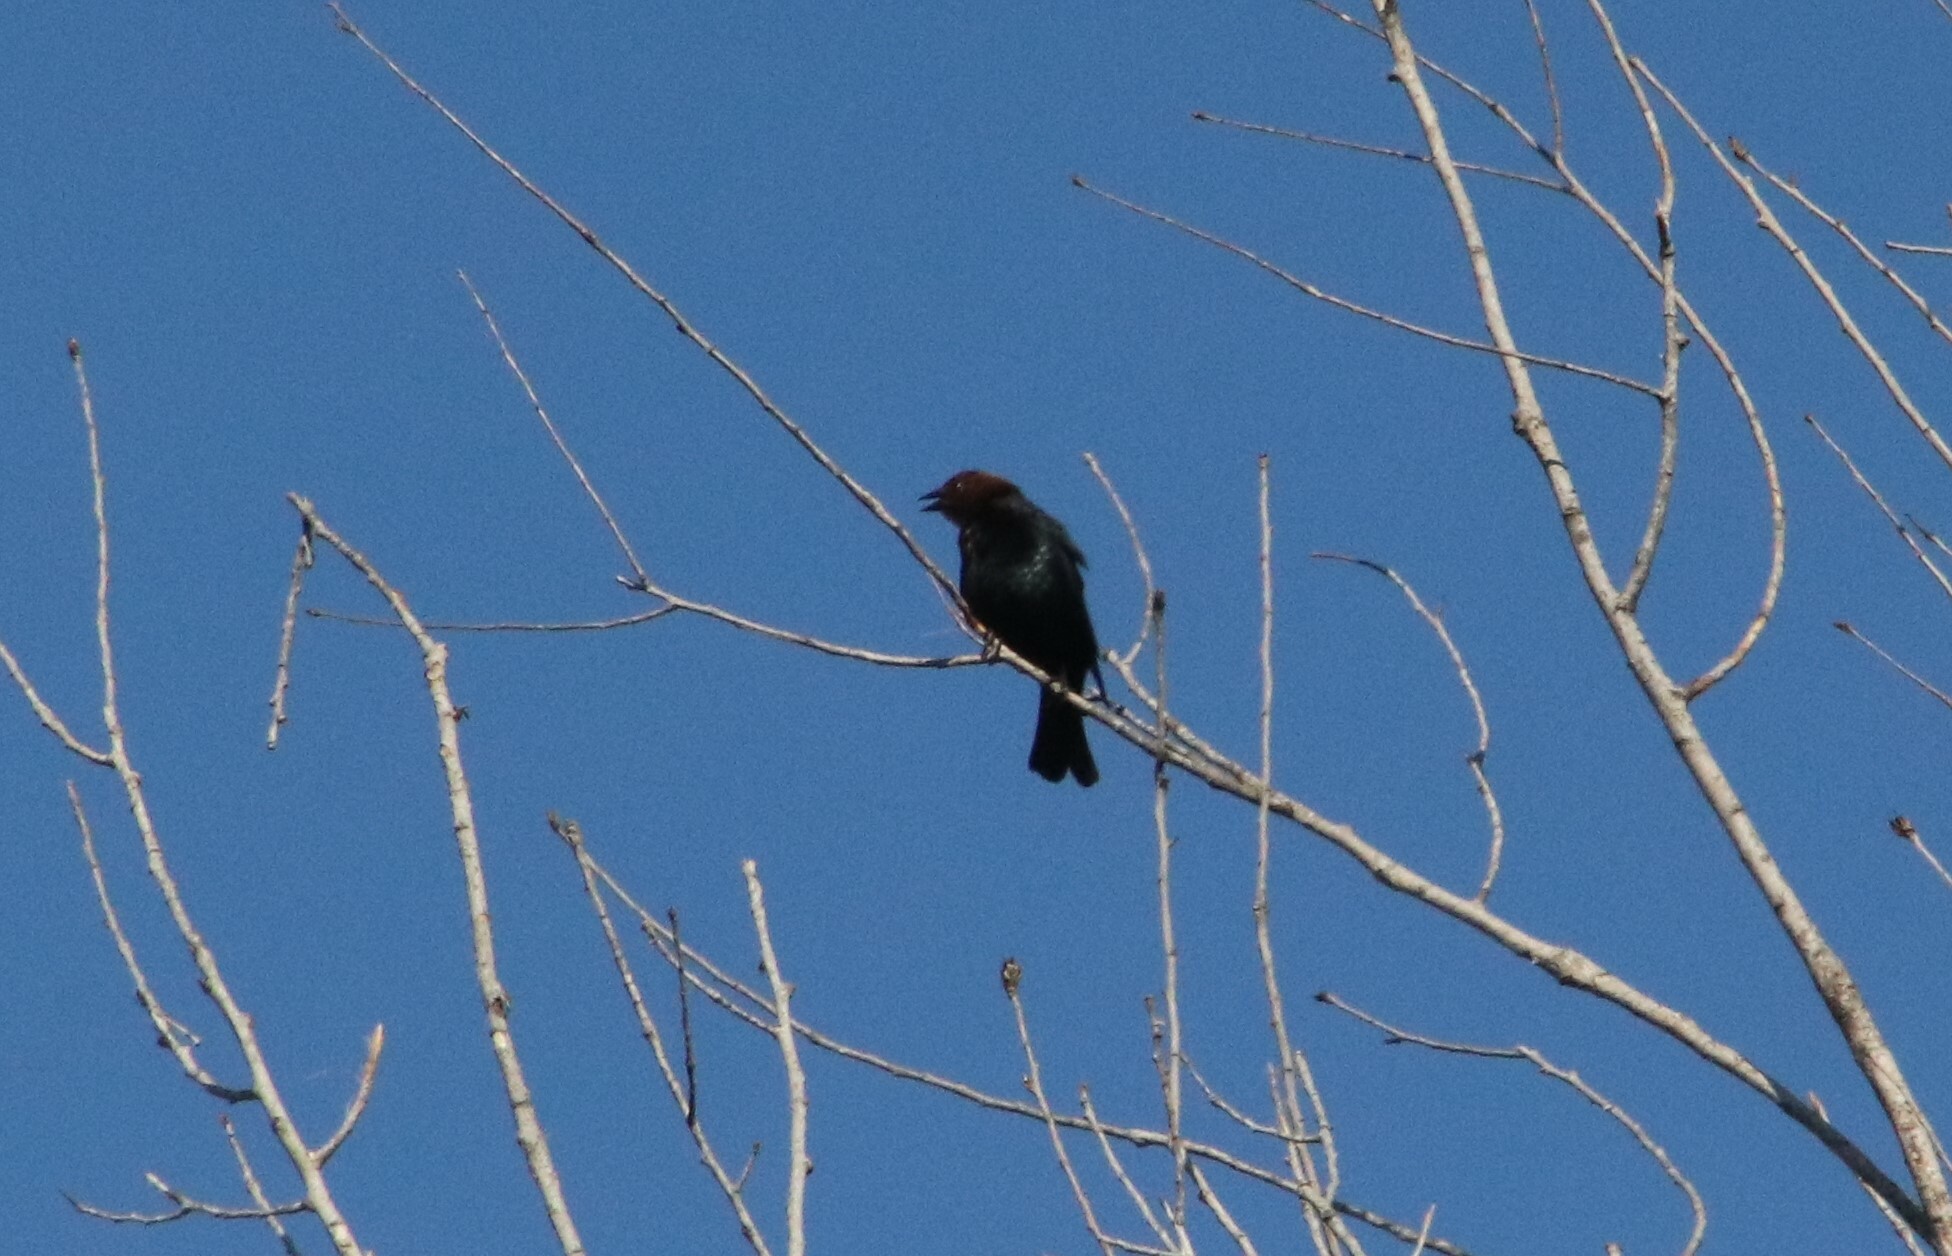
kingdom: Animalia
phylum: Chordata
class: Aves
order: Passeriformes
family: Icteridae
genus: Molothrus
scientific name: Molothrus ater
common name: Brown-headed cowbird
